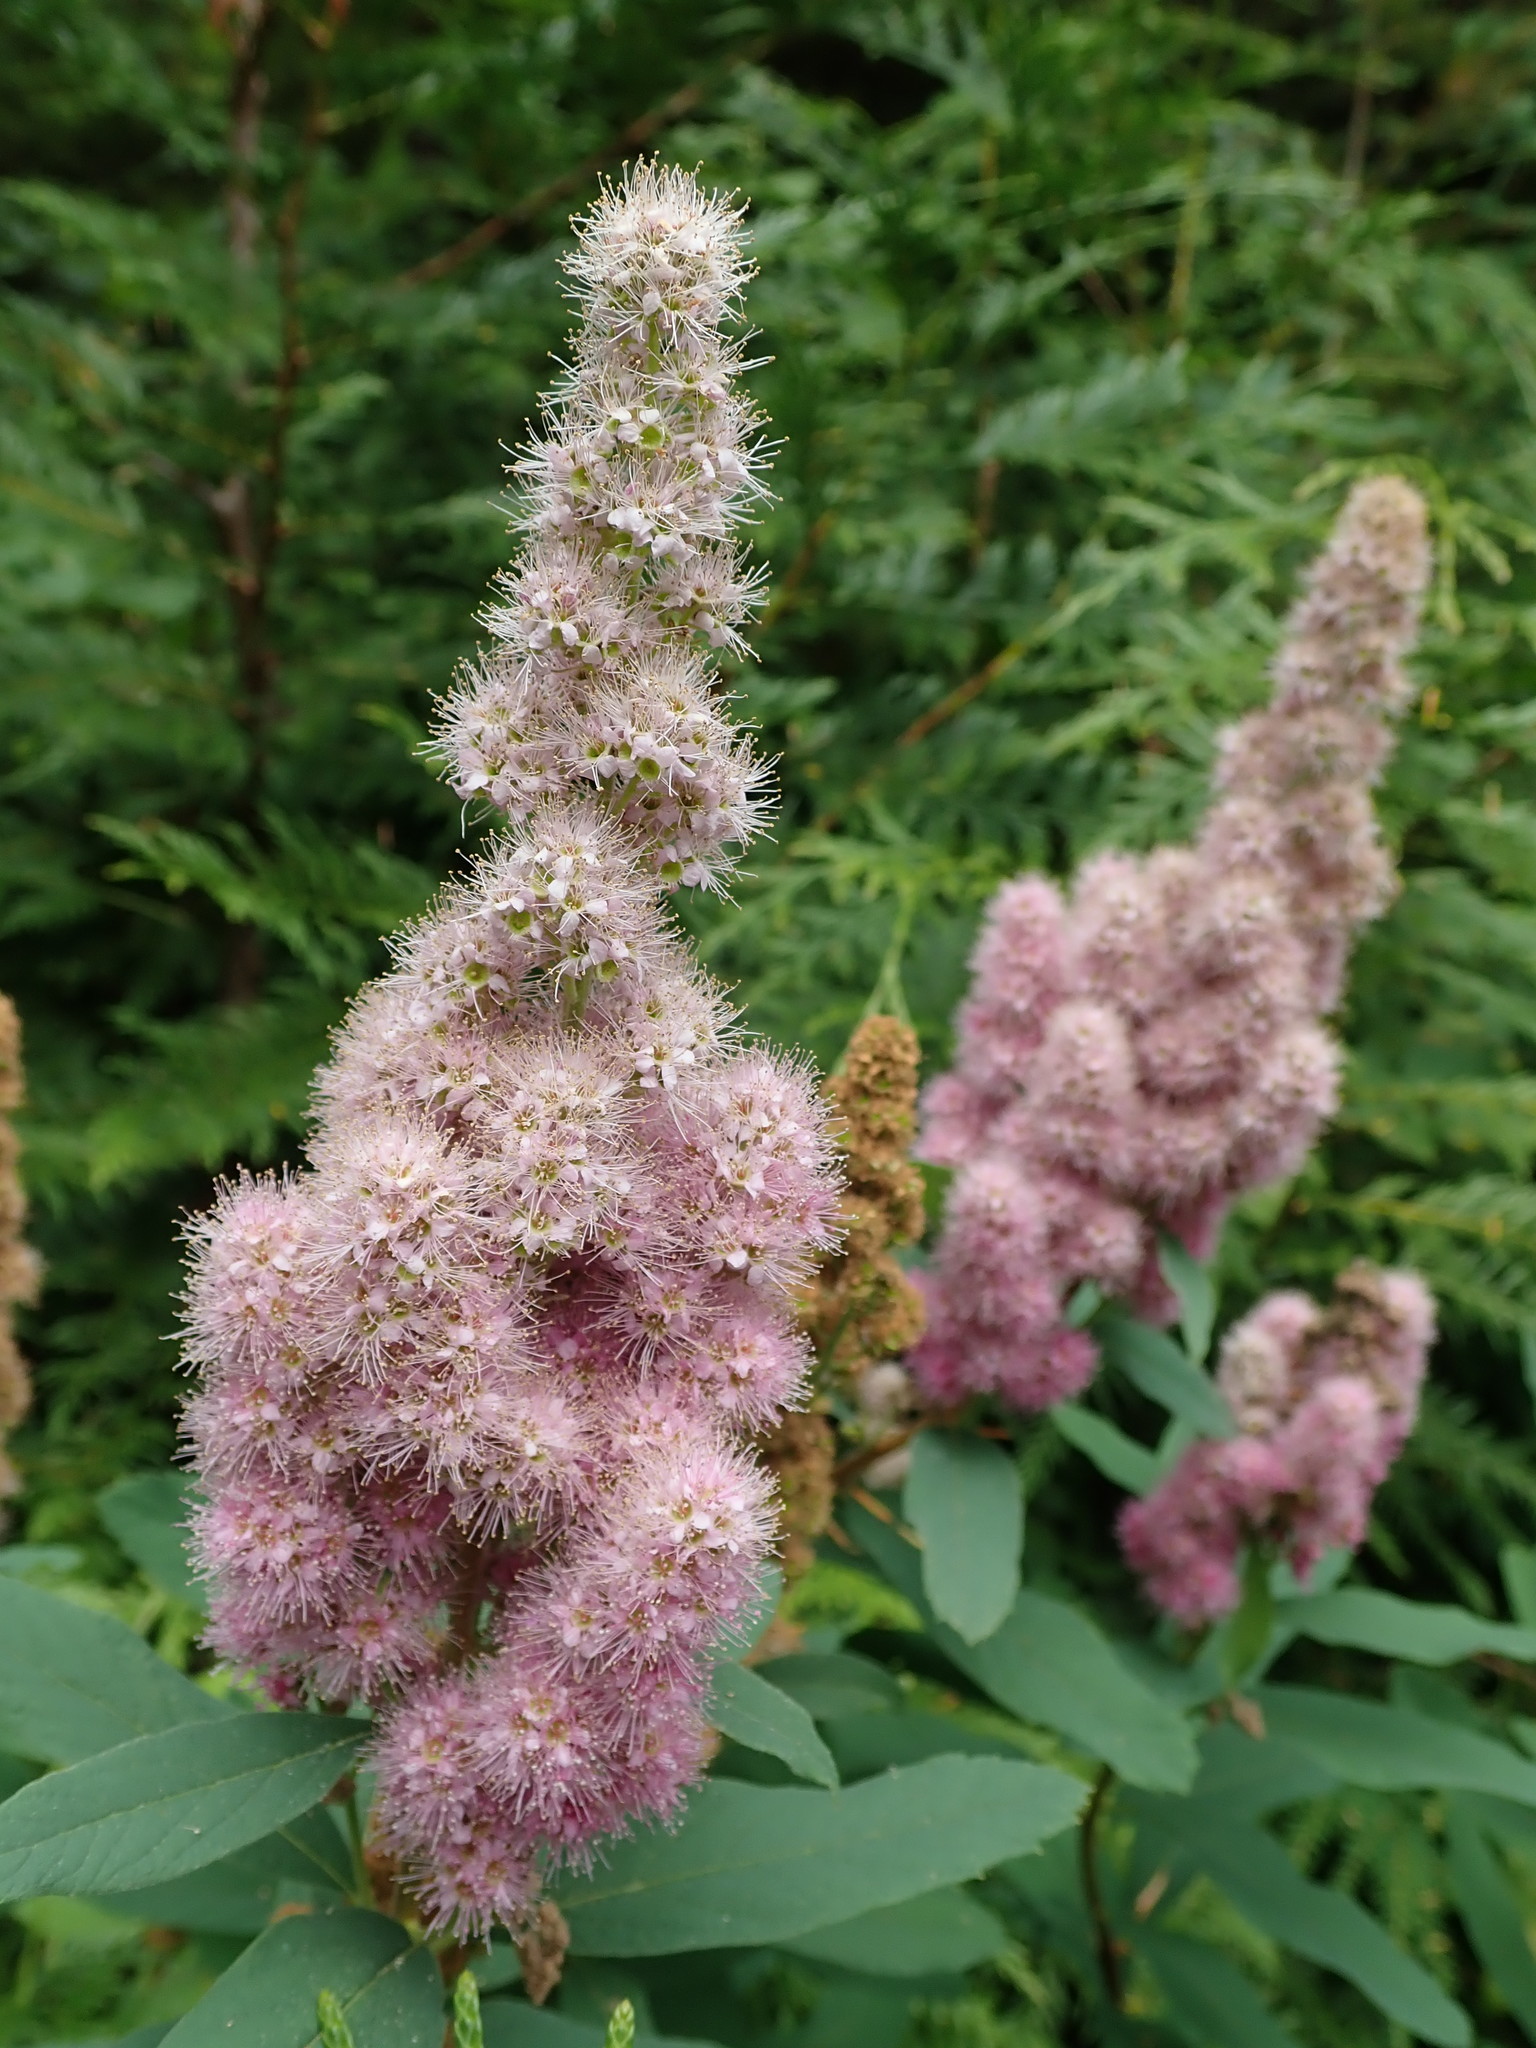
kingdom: Plantae
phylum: Tracheophyta
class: Magnoliopsida
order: Rosales
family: Rosaceae
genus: Spiraea
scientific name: Spiraea douglasii
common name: Steeplebush
